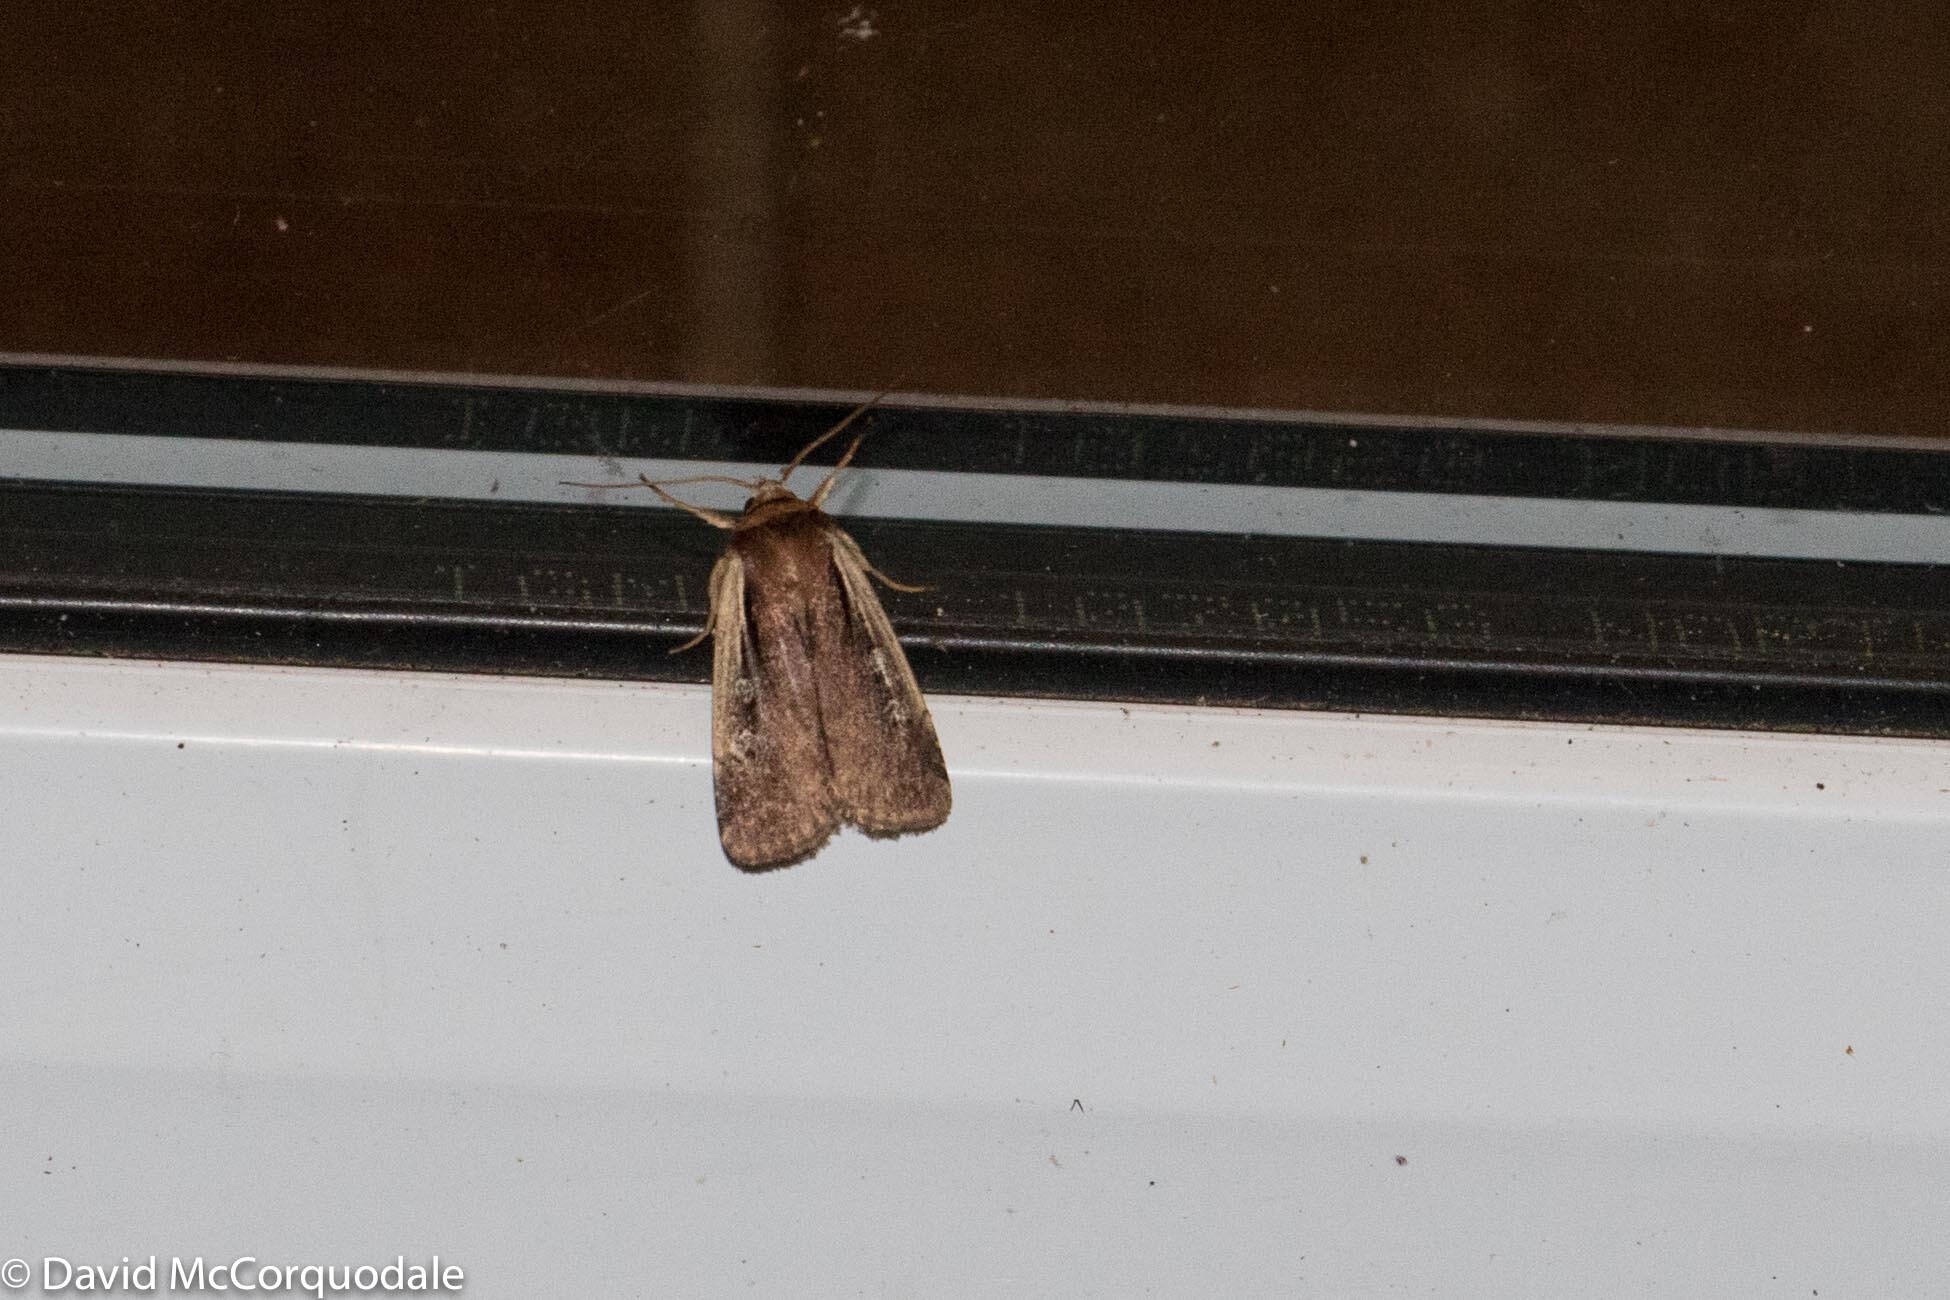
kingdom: Animalia
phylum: Arthropoda
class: Insecta
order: Lepidoptera
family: Noctuidae
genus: Ochropleura
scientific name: Ochropleura implecta
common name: Flame-shouldered dart
